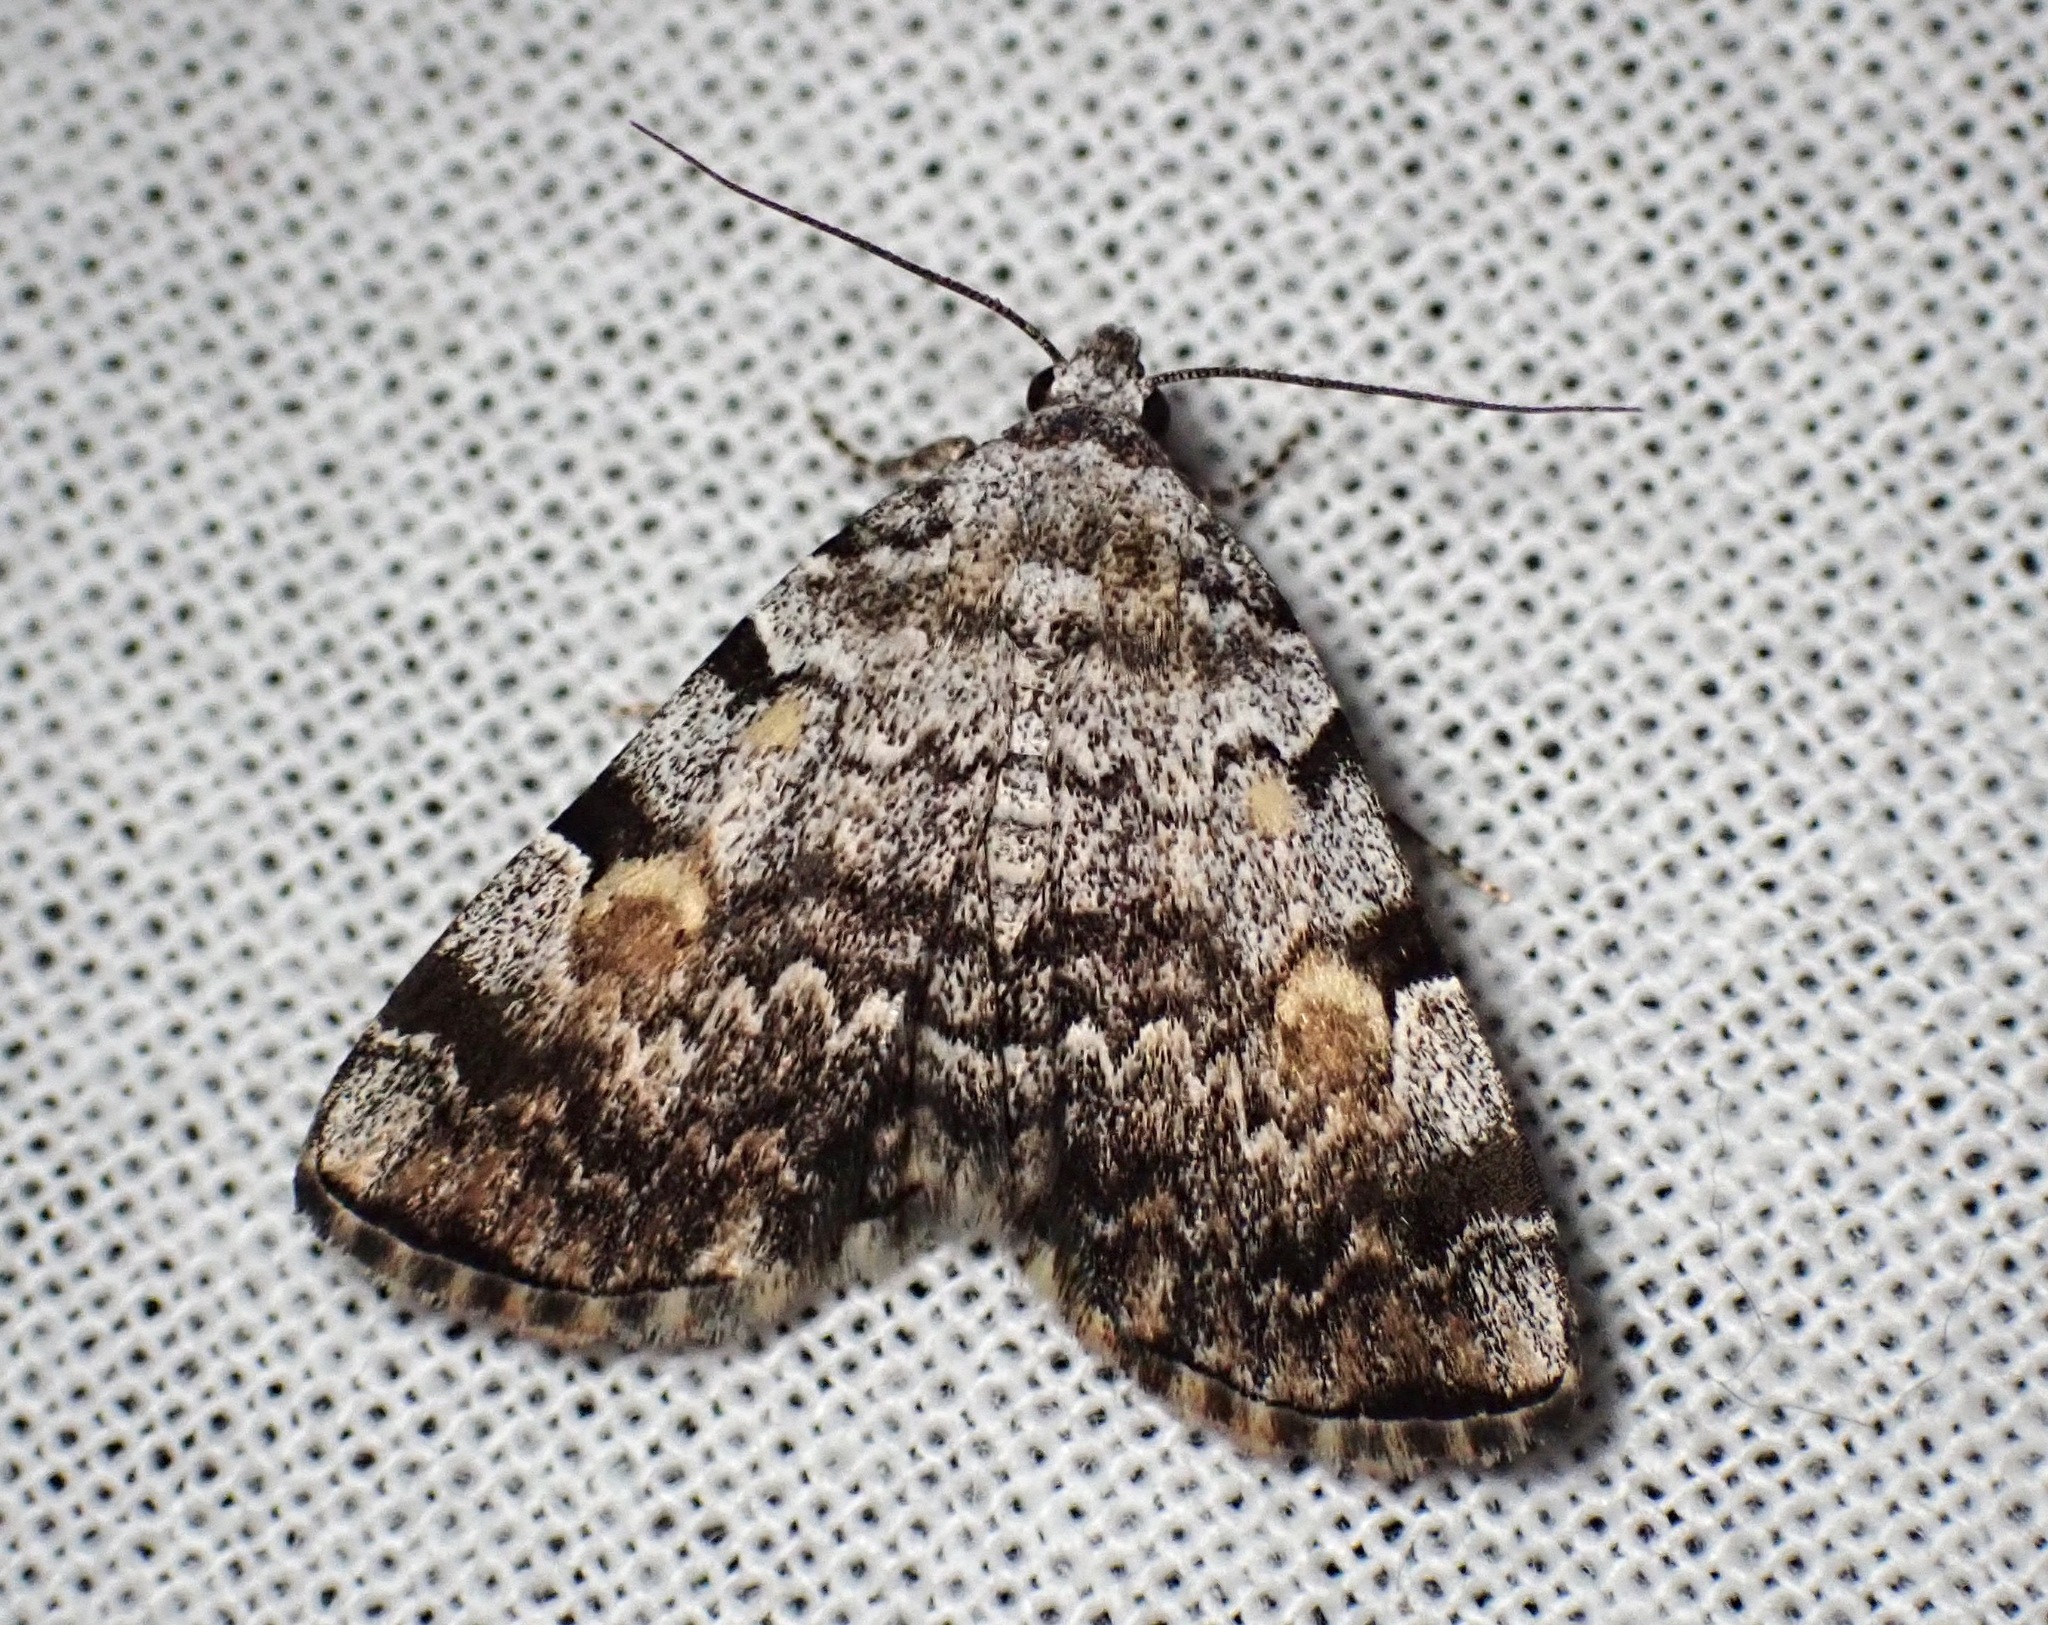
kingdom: Animalia
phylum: Arthropoda
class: Insecta
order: Lepidoptera
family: Erebidae
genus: Idia
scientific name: Idia americalis
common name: American idia moth
